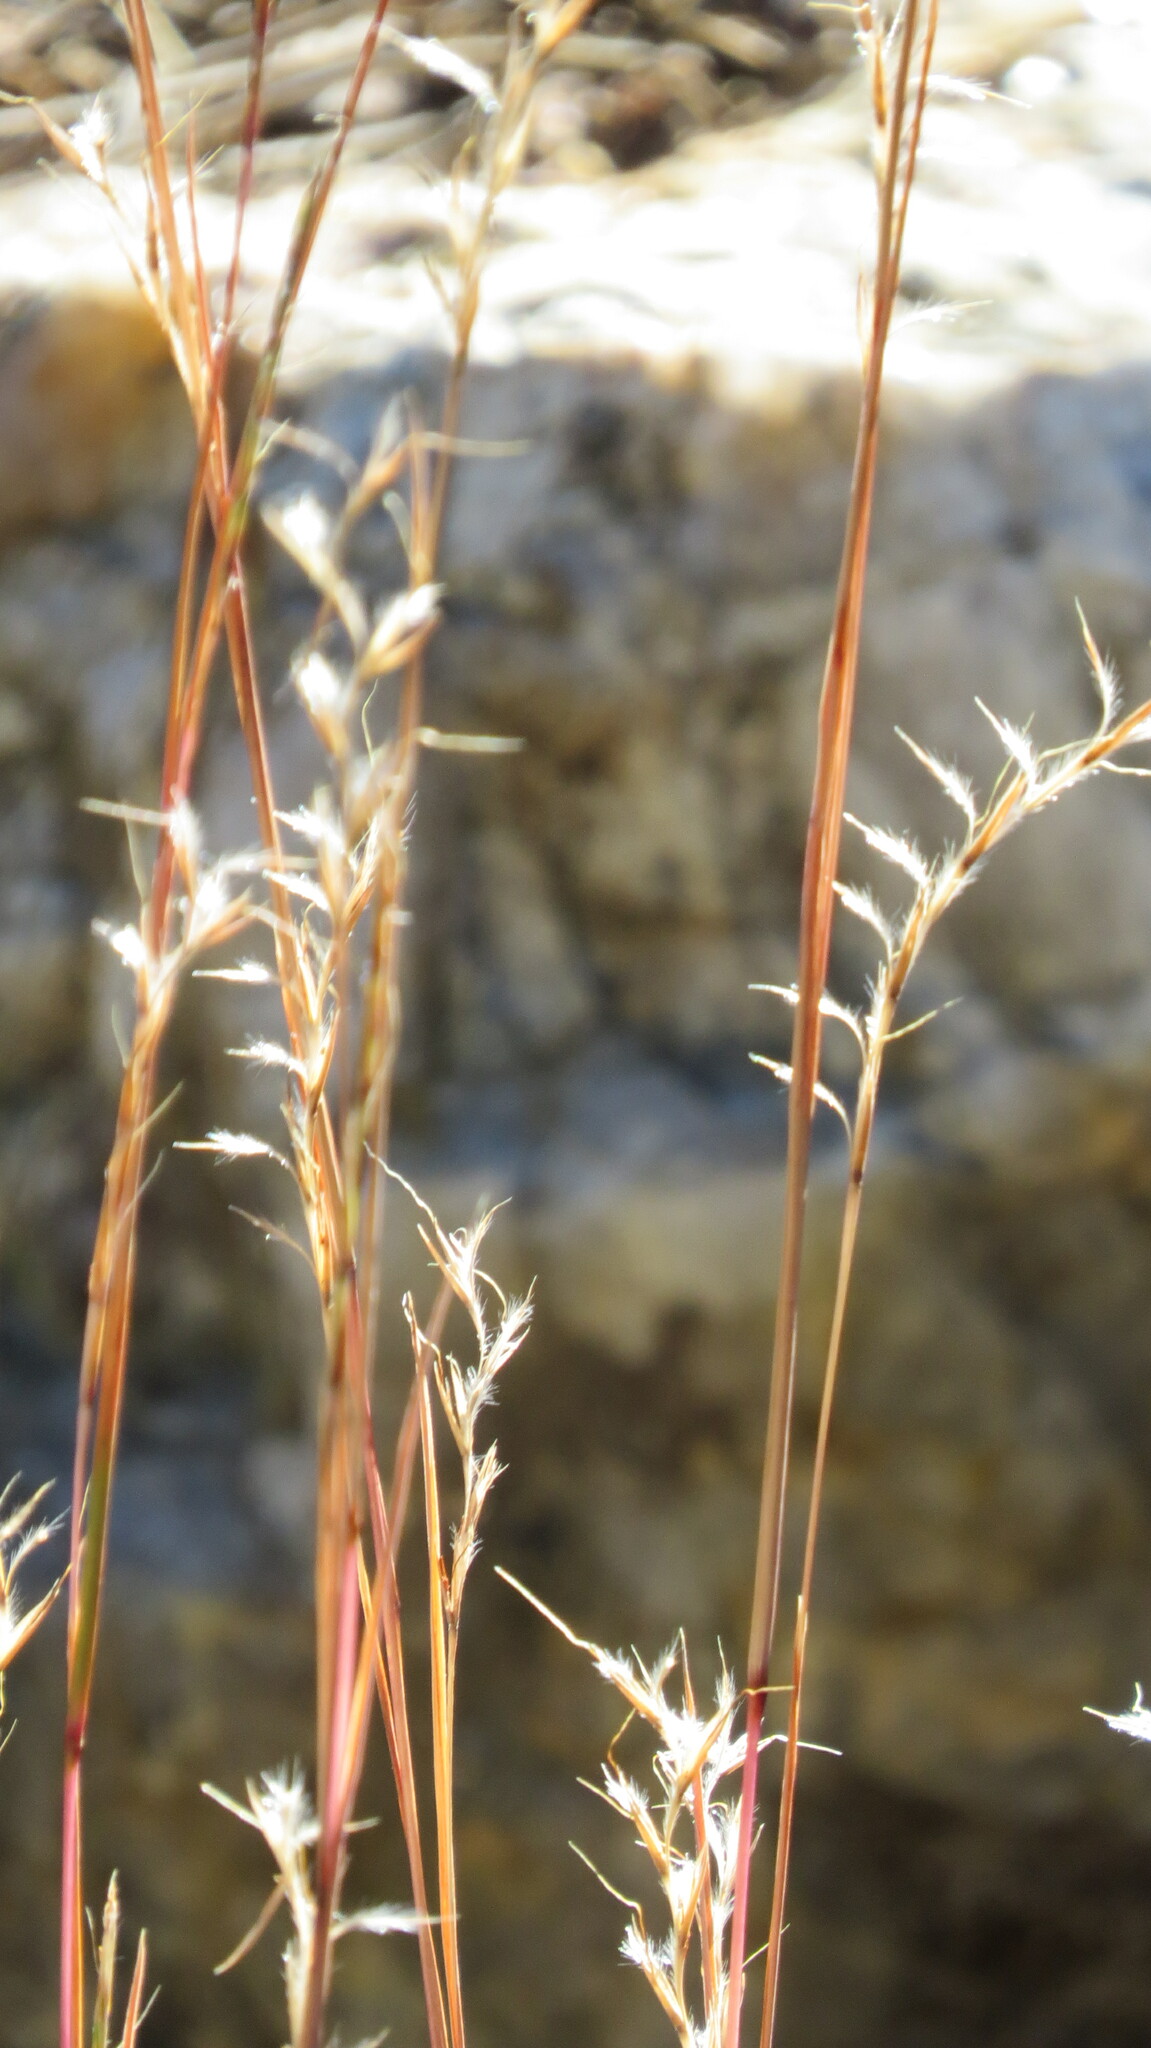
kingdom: Plantae
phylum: Tracheophyta
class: Liliopsida
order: Poales
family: Poaceae
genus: Schizachyrium
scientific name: Schizachyrium scoparium
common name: Little bluestem
